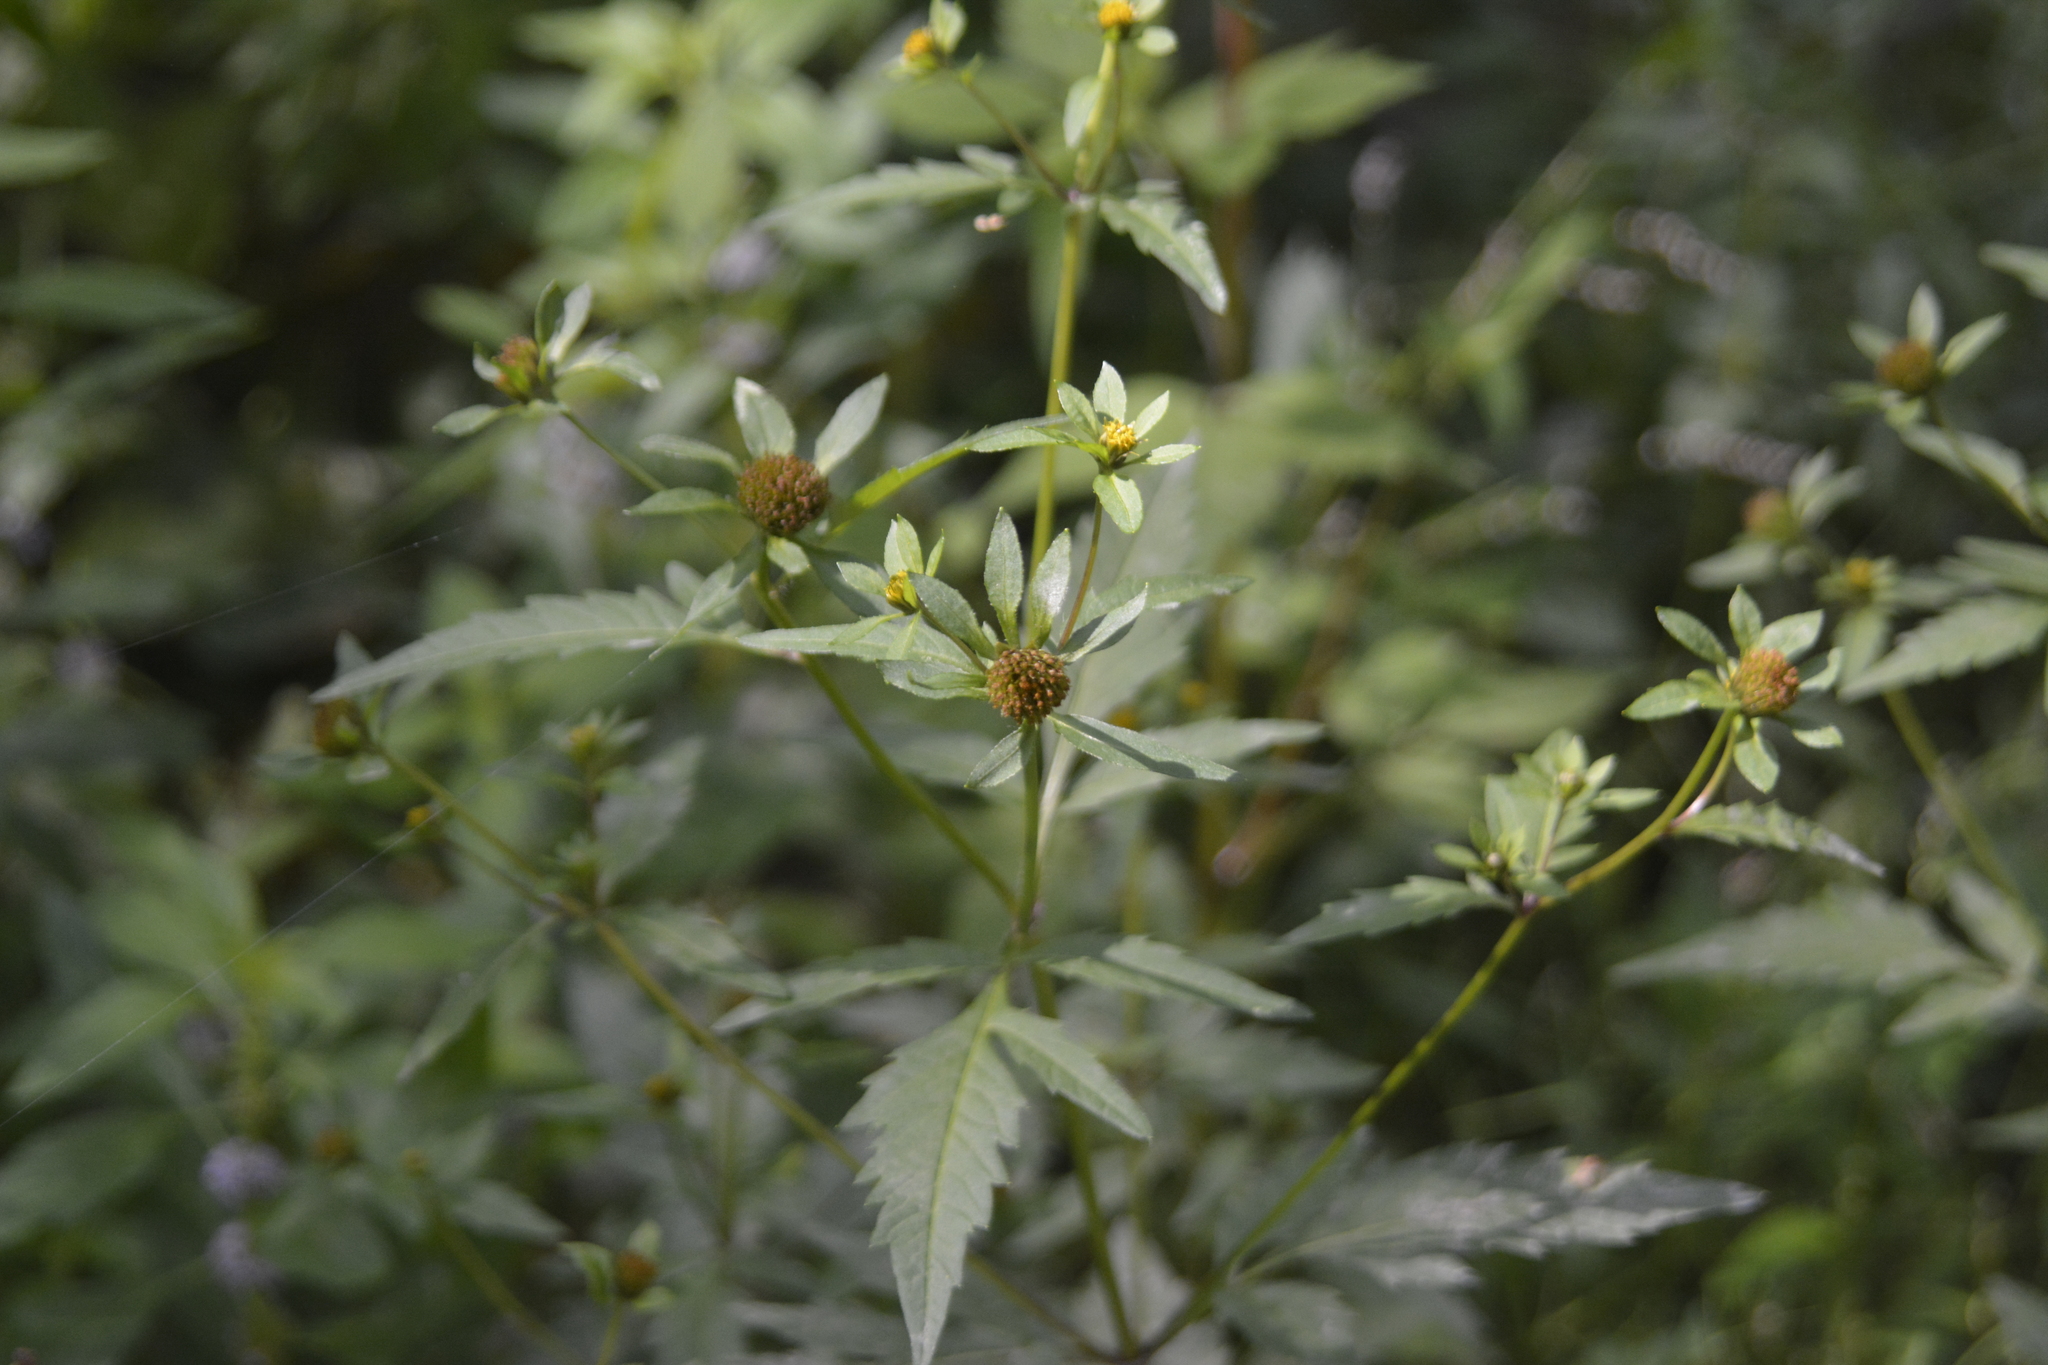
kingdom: Plantae
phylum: Tracheophyta
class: Magnoliopsida
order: Asterales
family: Asteraceae
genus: Bidens
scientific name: Bidens tripartita
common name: Trifid bur-marigold
